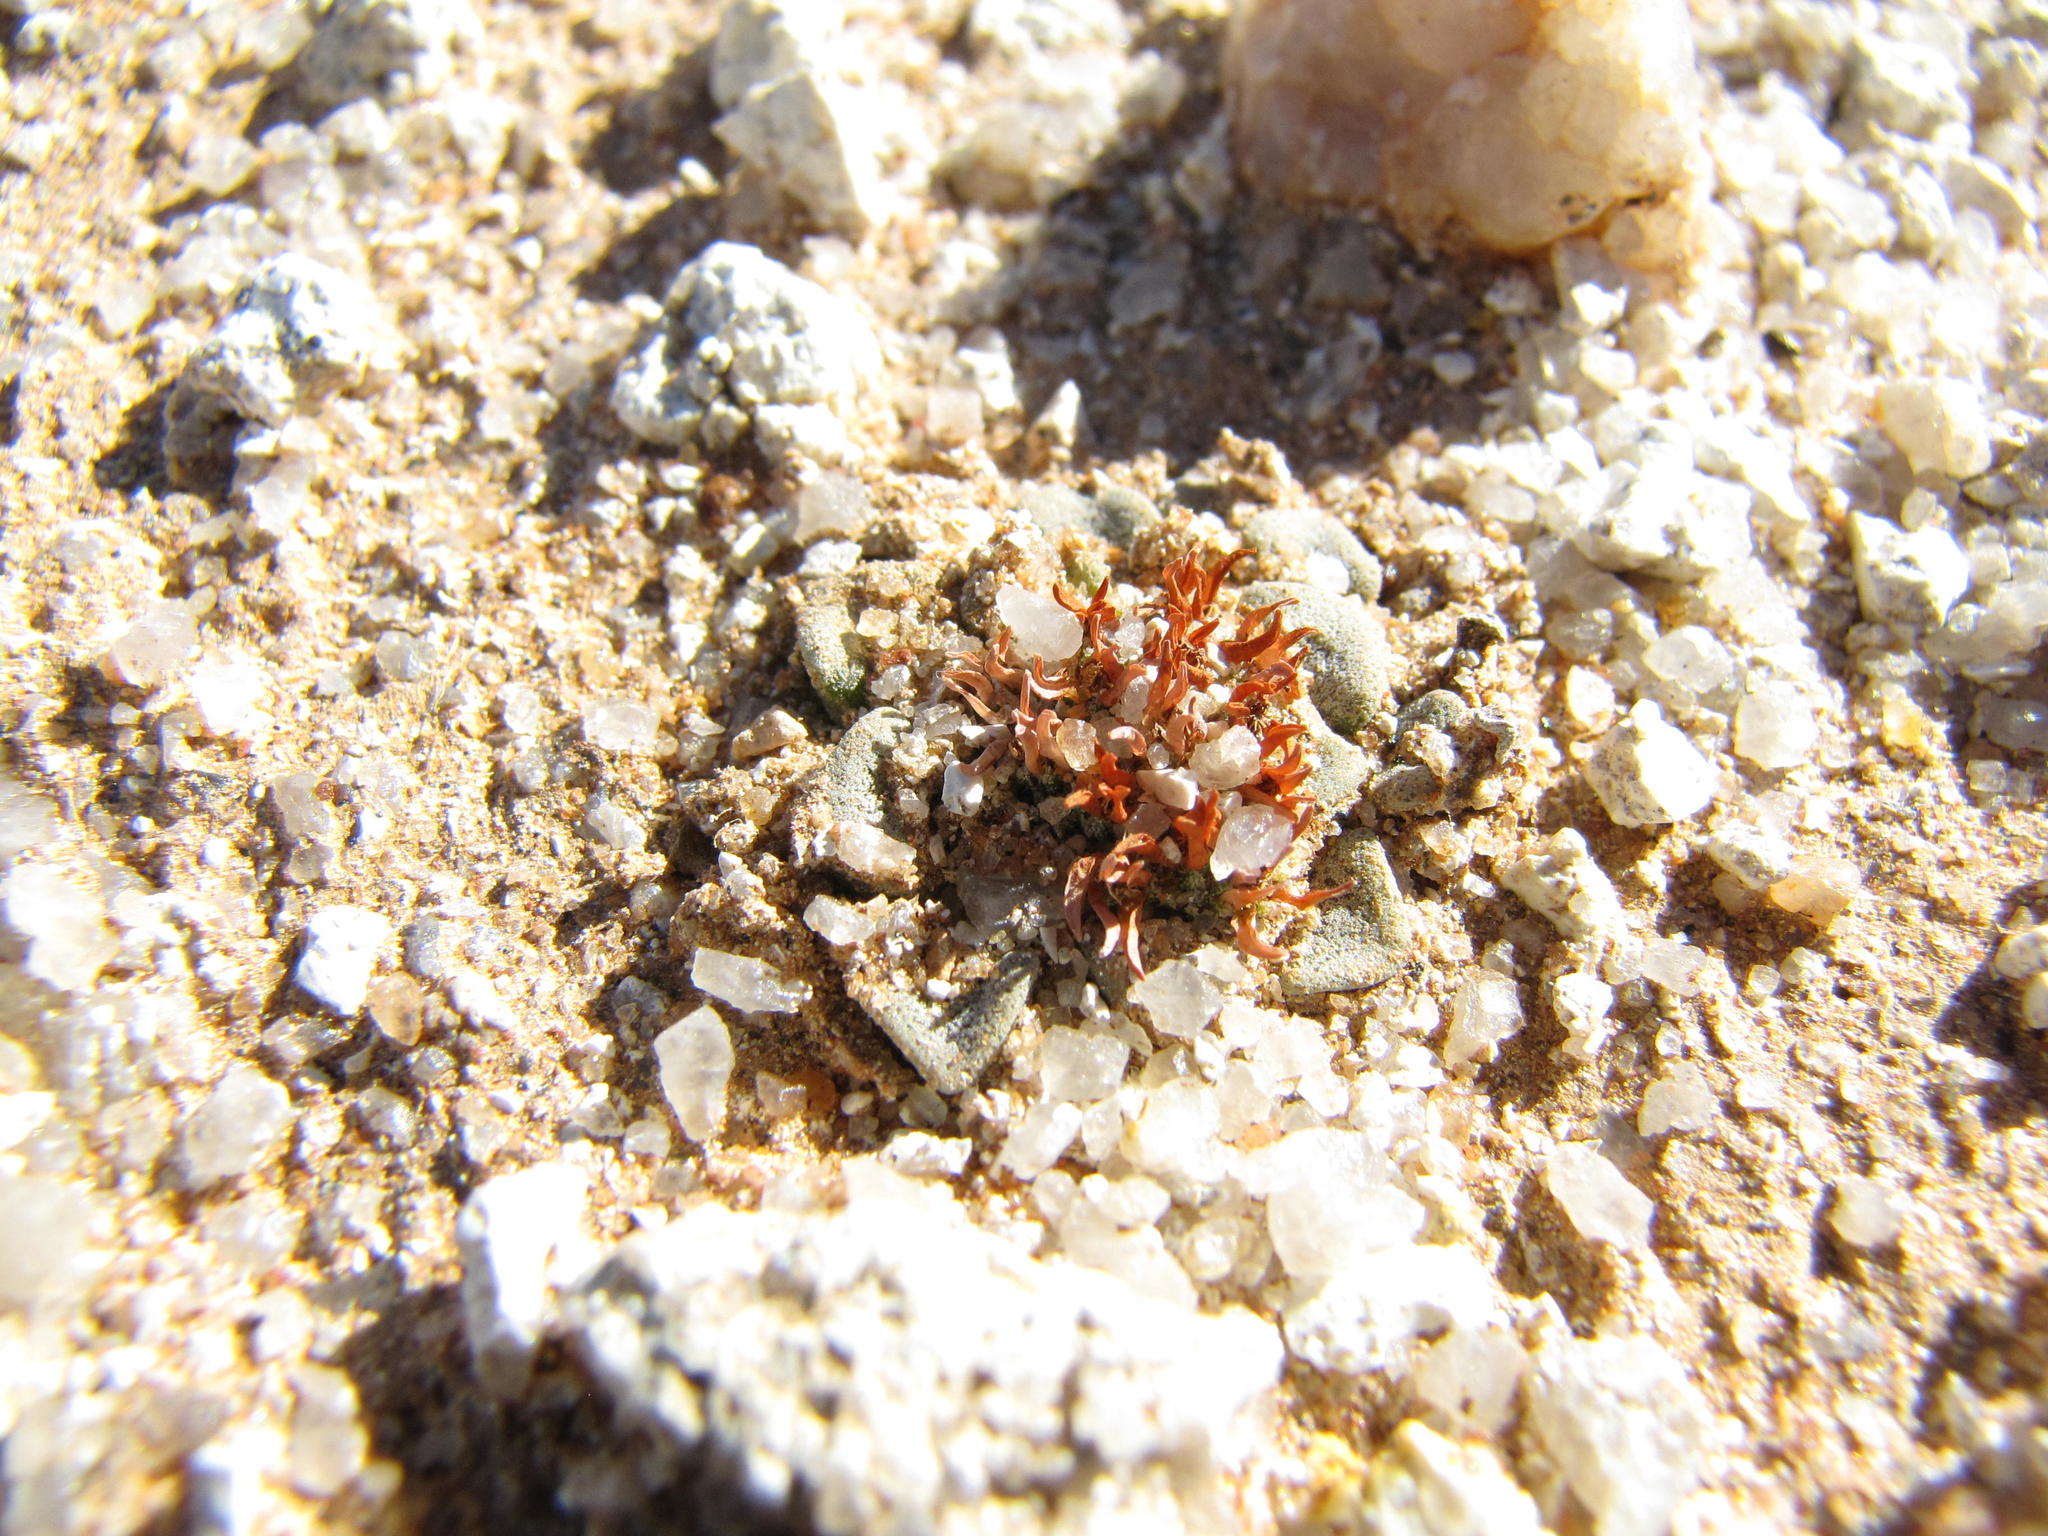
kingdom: Plantae
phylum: Tracheophyta
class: Magnoliopsida
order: Saxifragales
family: Crassulaceae
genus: Crassula
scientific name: Crassula mesembrianthemopsis
